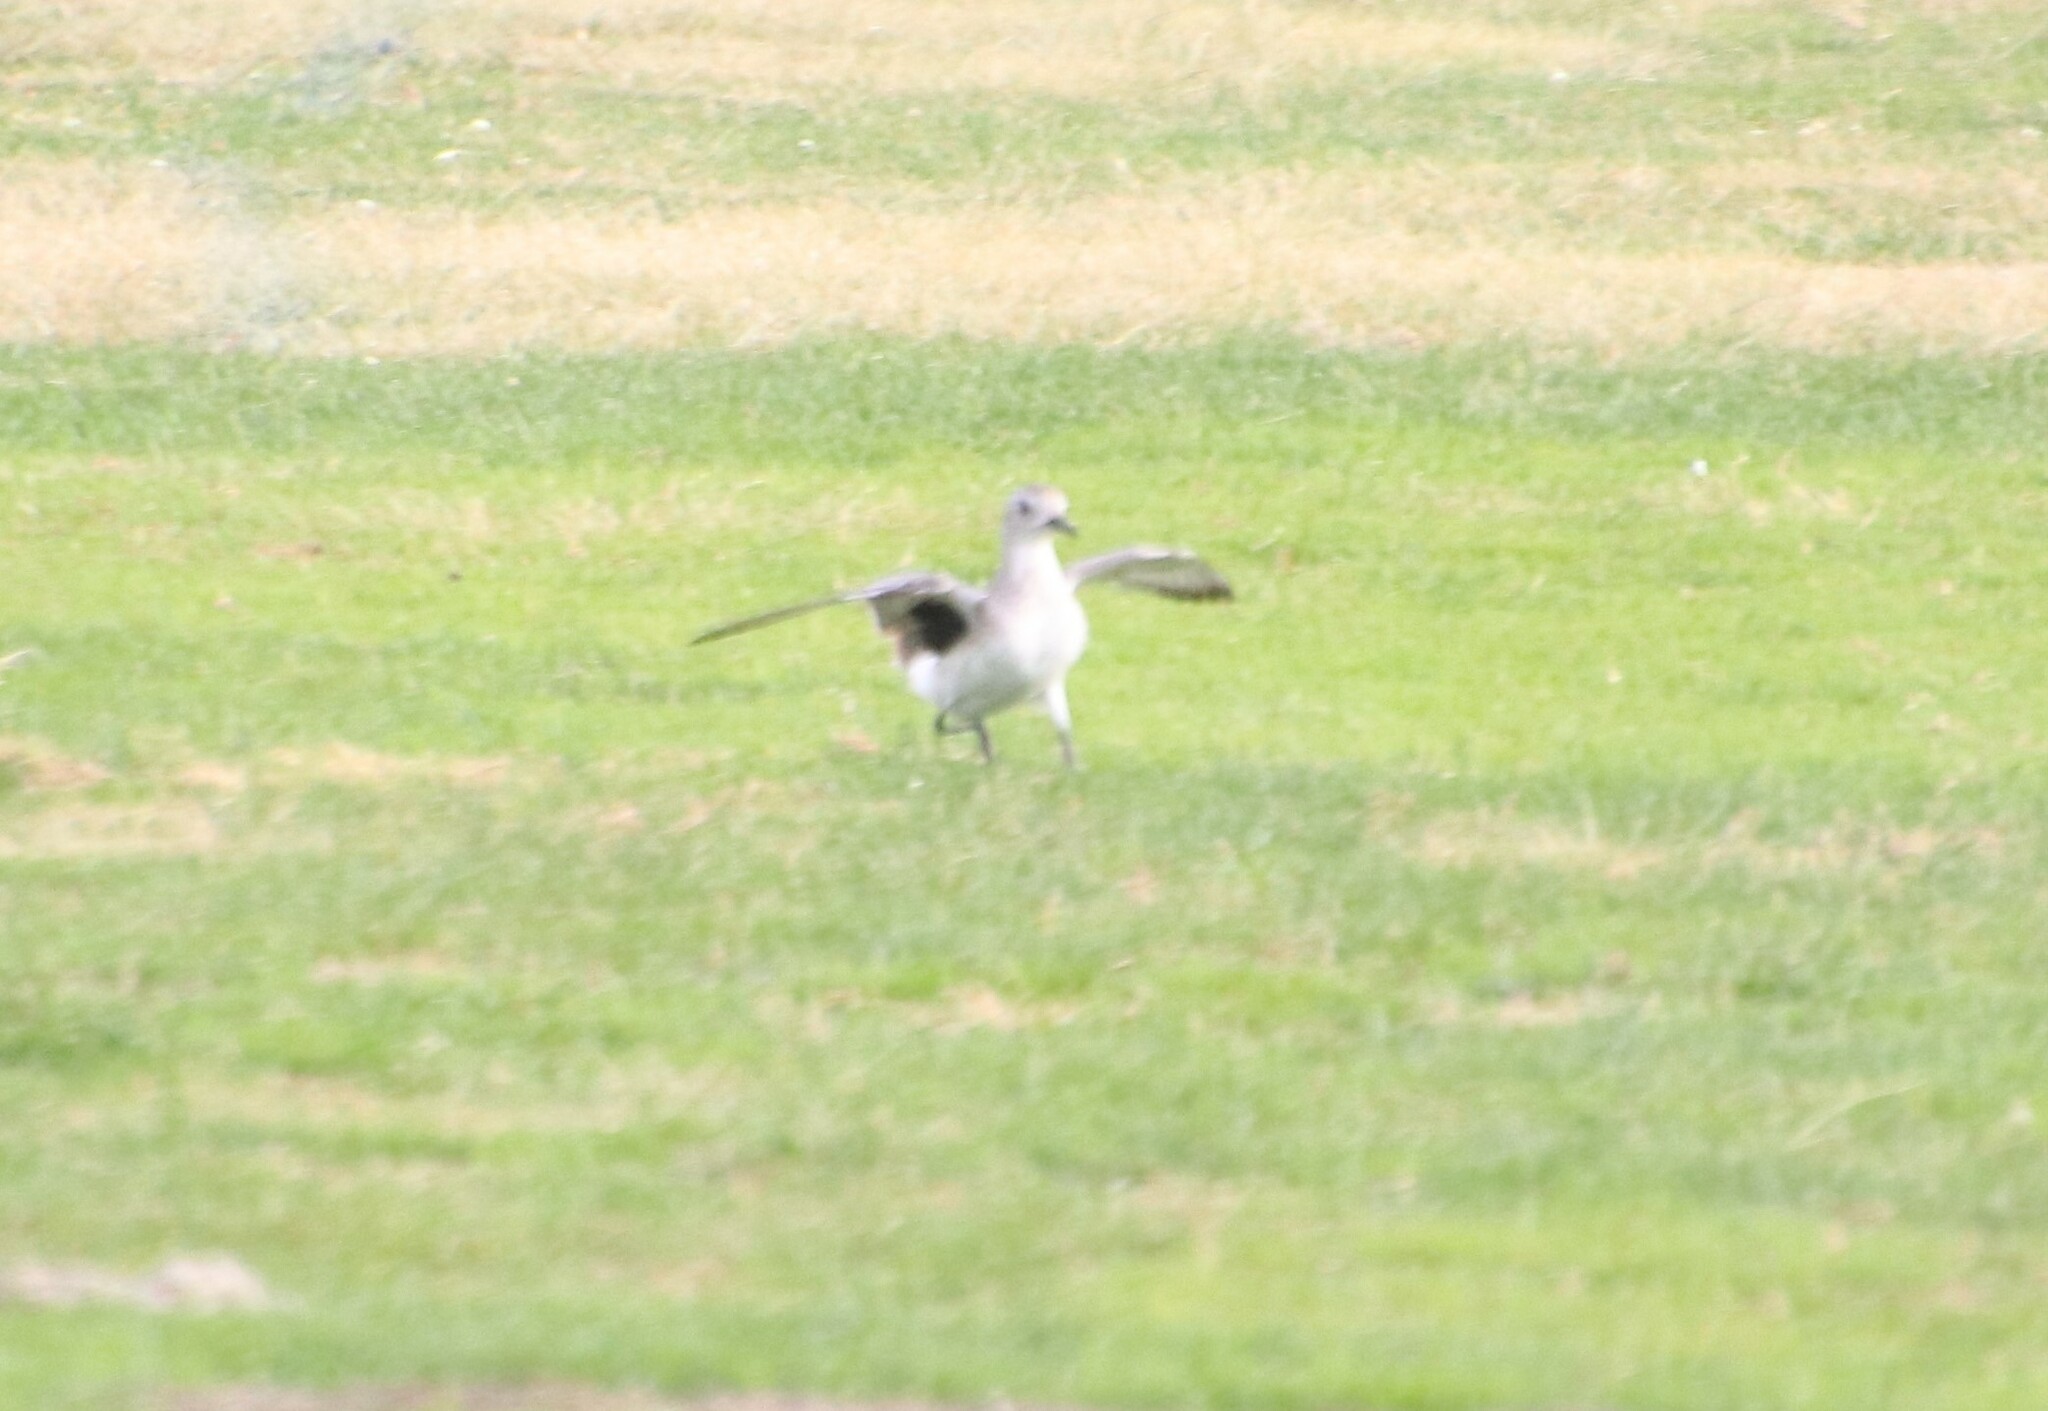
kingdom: Animalia
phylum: Chordata
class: Aves
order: Charadriiformes
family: Charadriidae
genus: Pluvialis
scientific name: Pluvialis squatarola
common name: Grey plover
